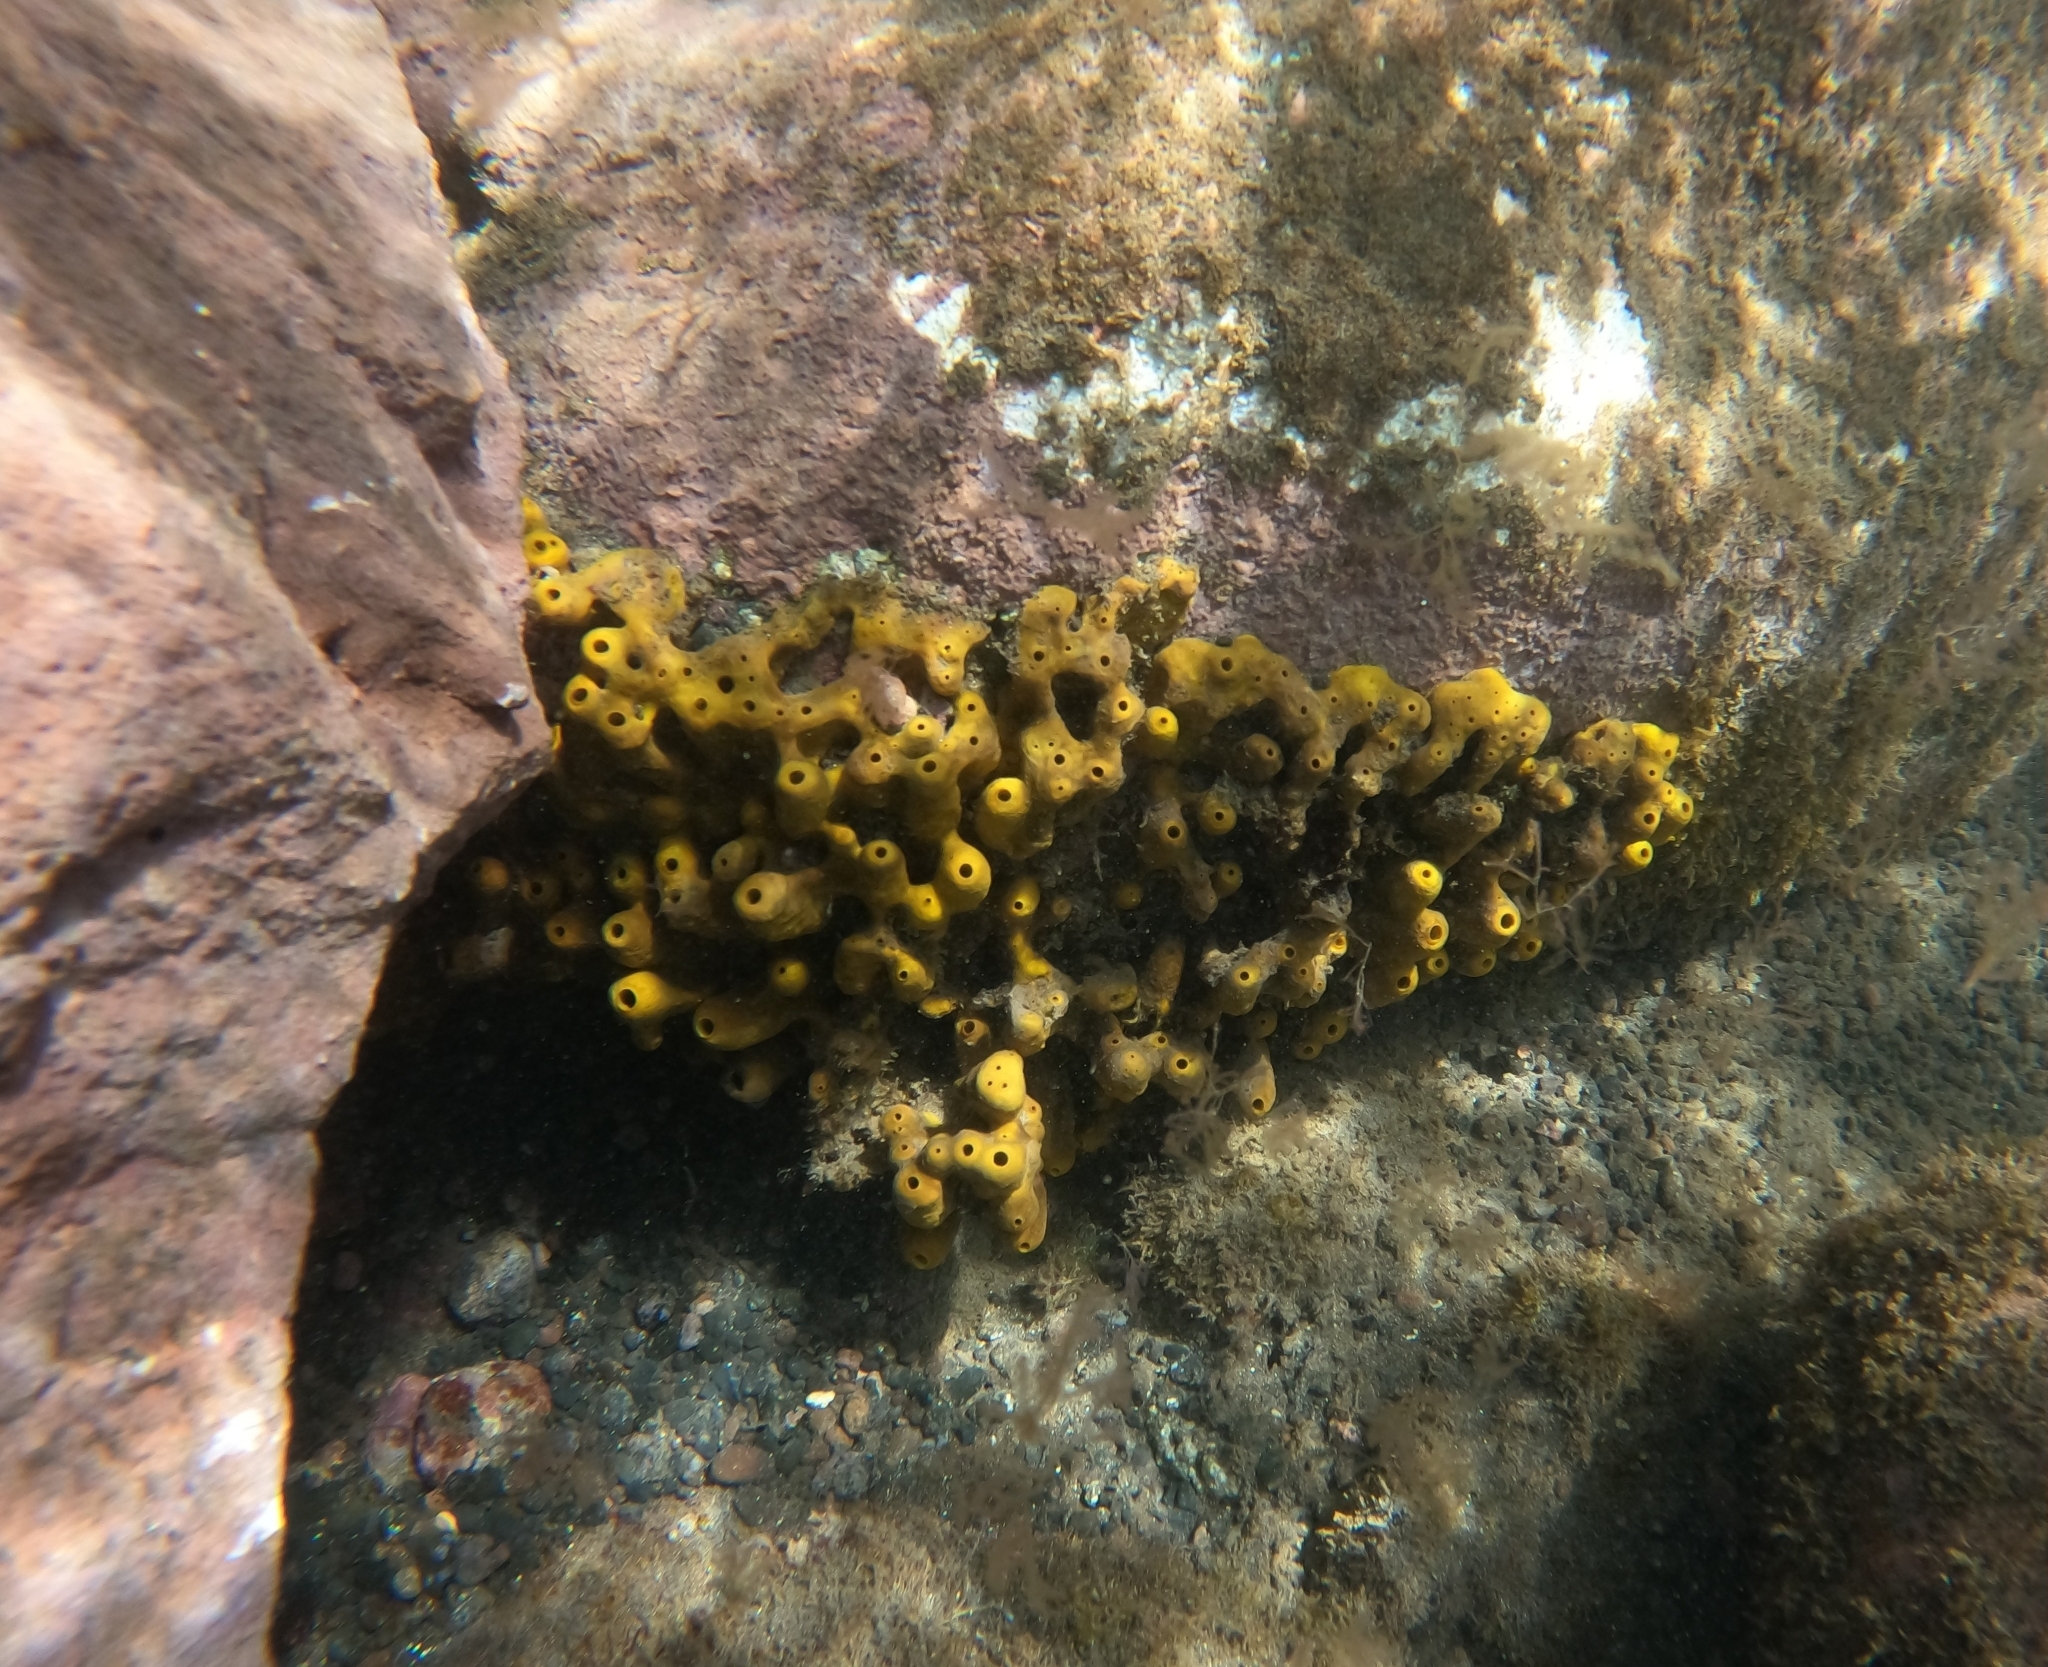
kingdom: Animalia
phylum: Porifera
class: Demospongiae
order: Verongiida
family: Aplysinidae
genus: Aplysina
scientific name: Aplysina aerophoba
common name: Aureate sponge
